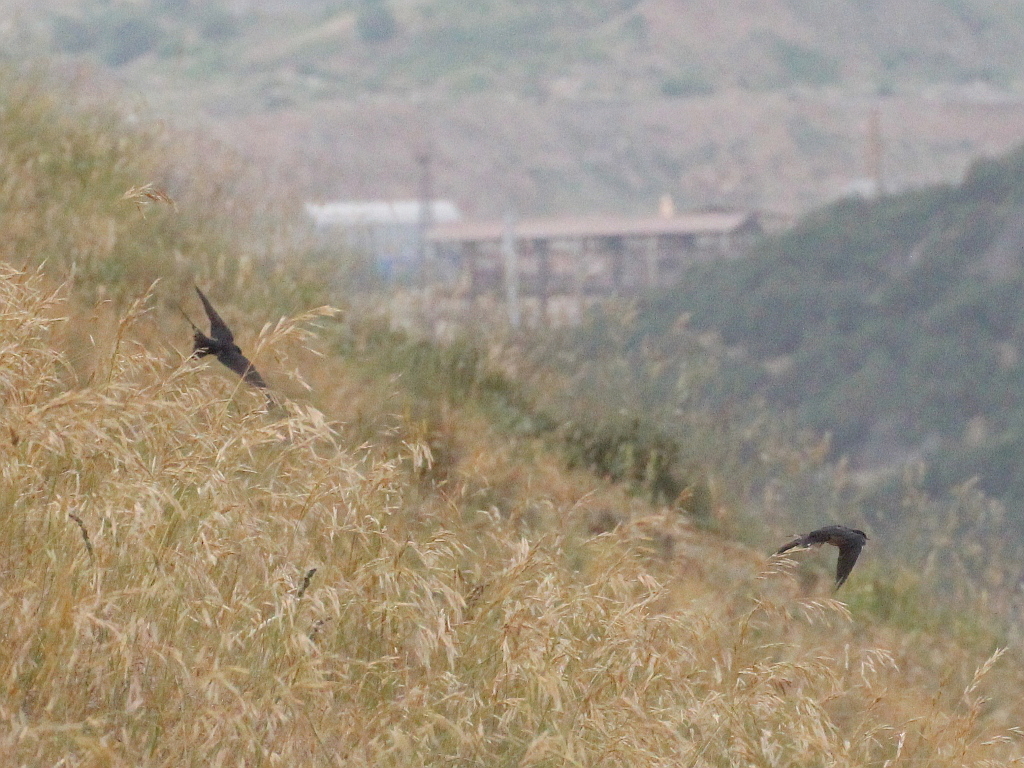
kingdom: Animalia
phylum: Chordata
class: Aves
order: Passeriformes
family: Hirundinidae
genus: Hirundo
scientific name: Hirundo rustica
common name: Barn swallow
